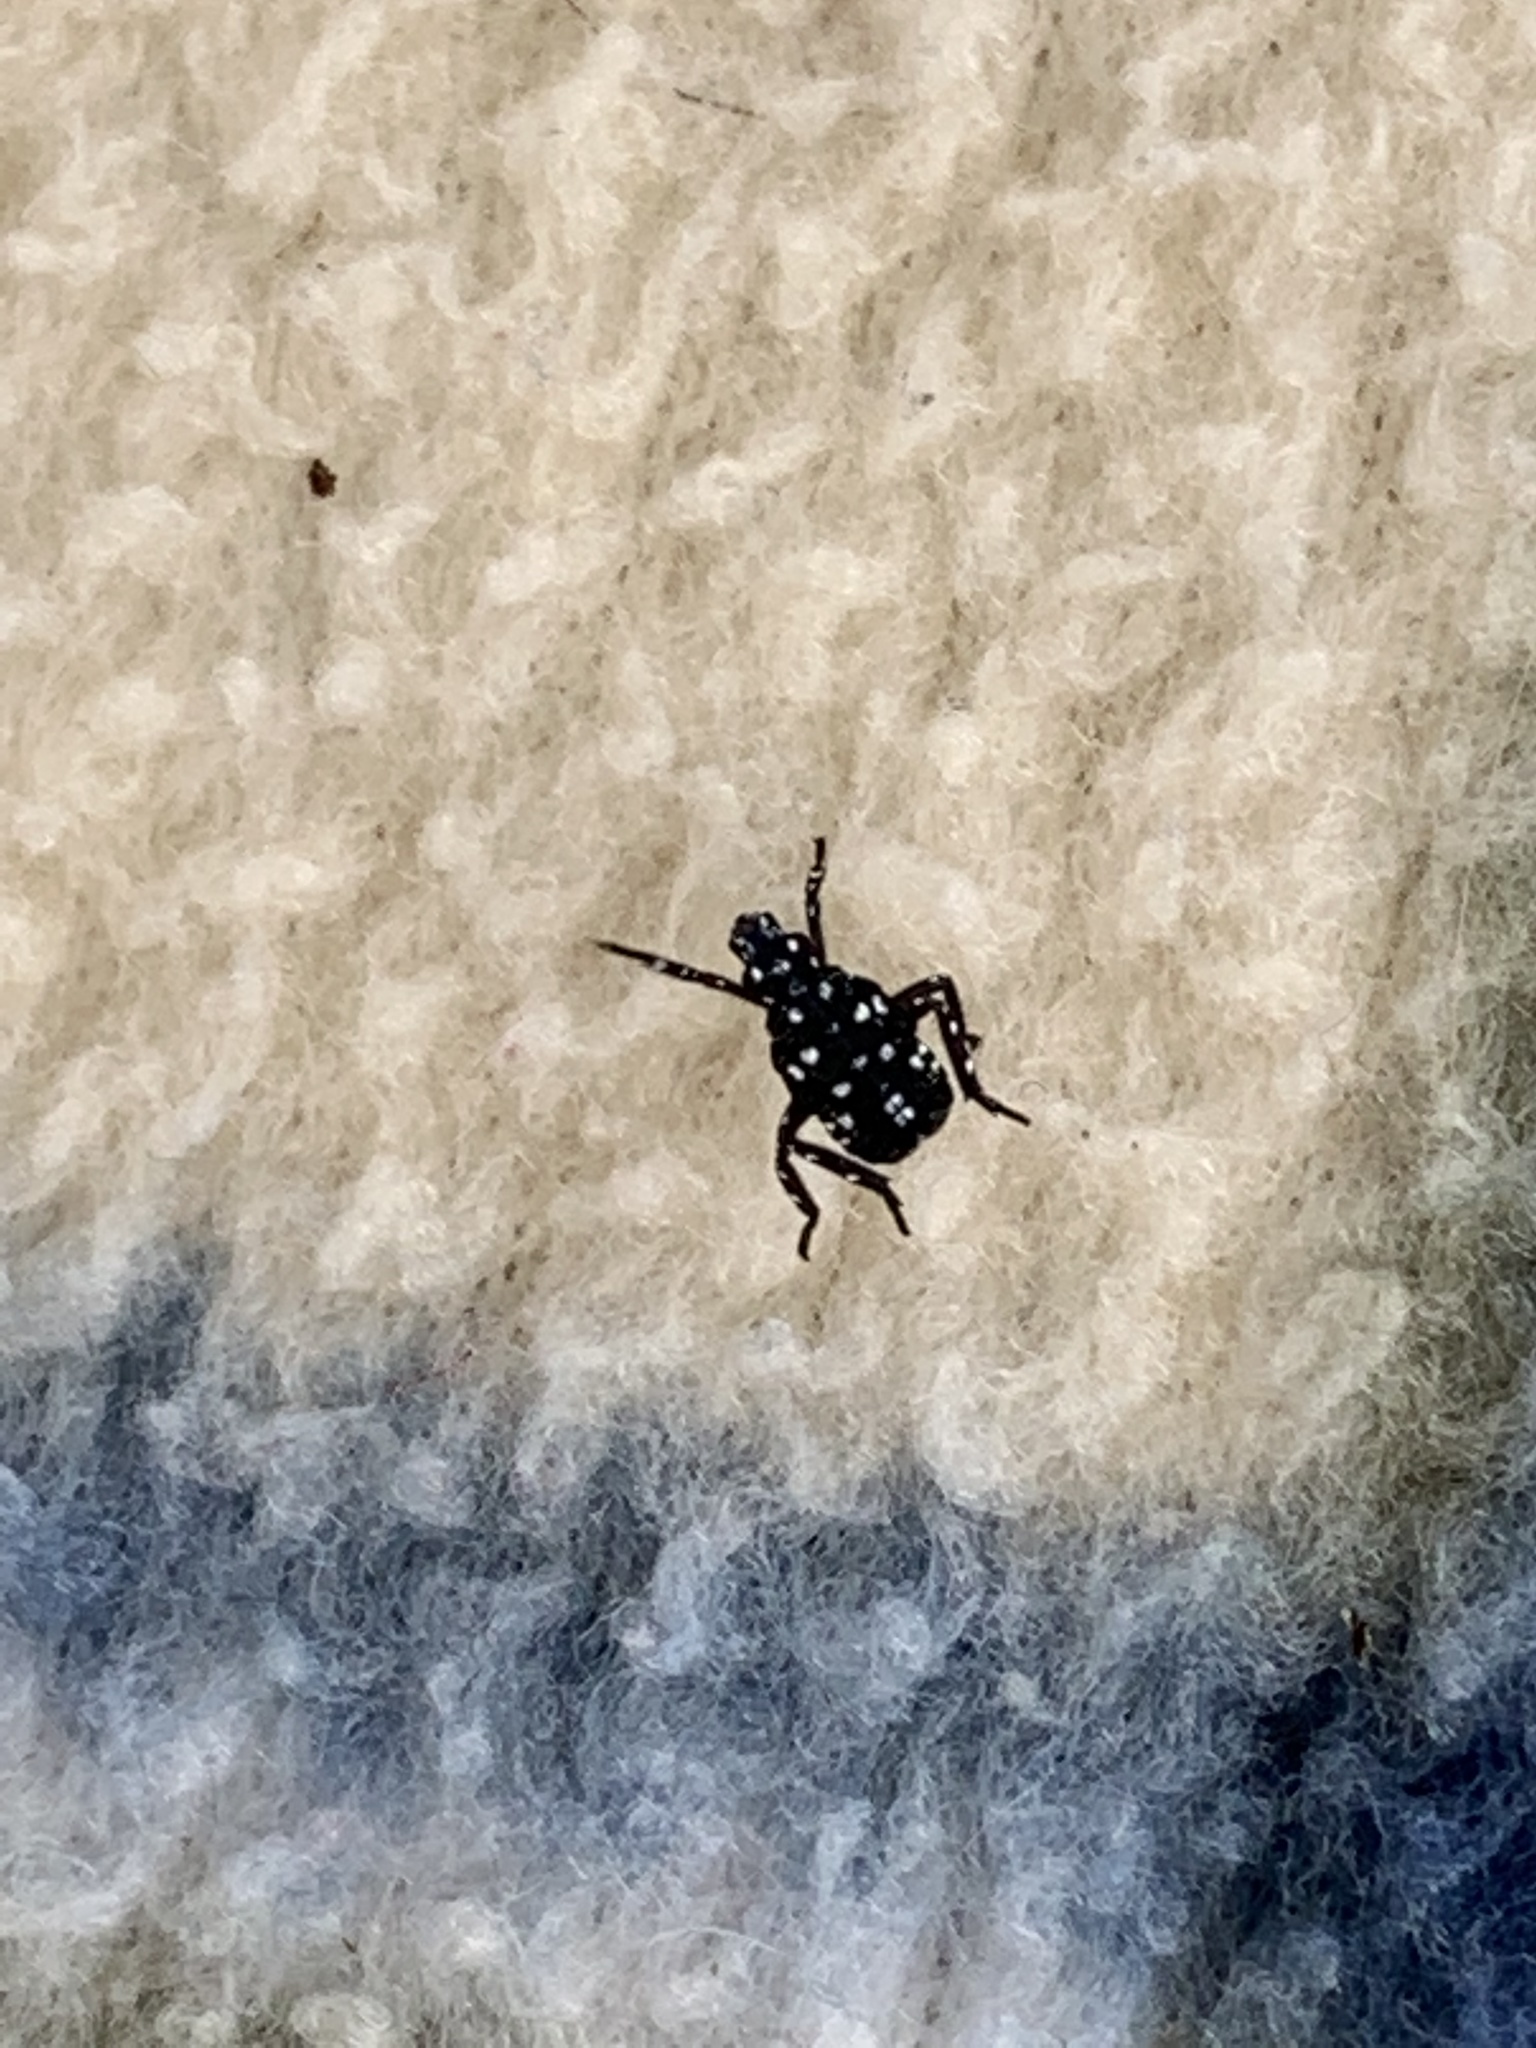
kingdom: Animalia
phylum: Arthropoda
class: Insecta
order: Hemiptera
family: Fulgoridae
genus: Lycorma
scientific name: Lycorma delicatula
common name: Spotted lanternfly
